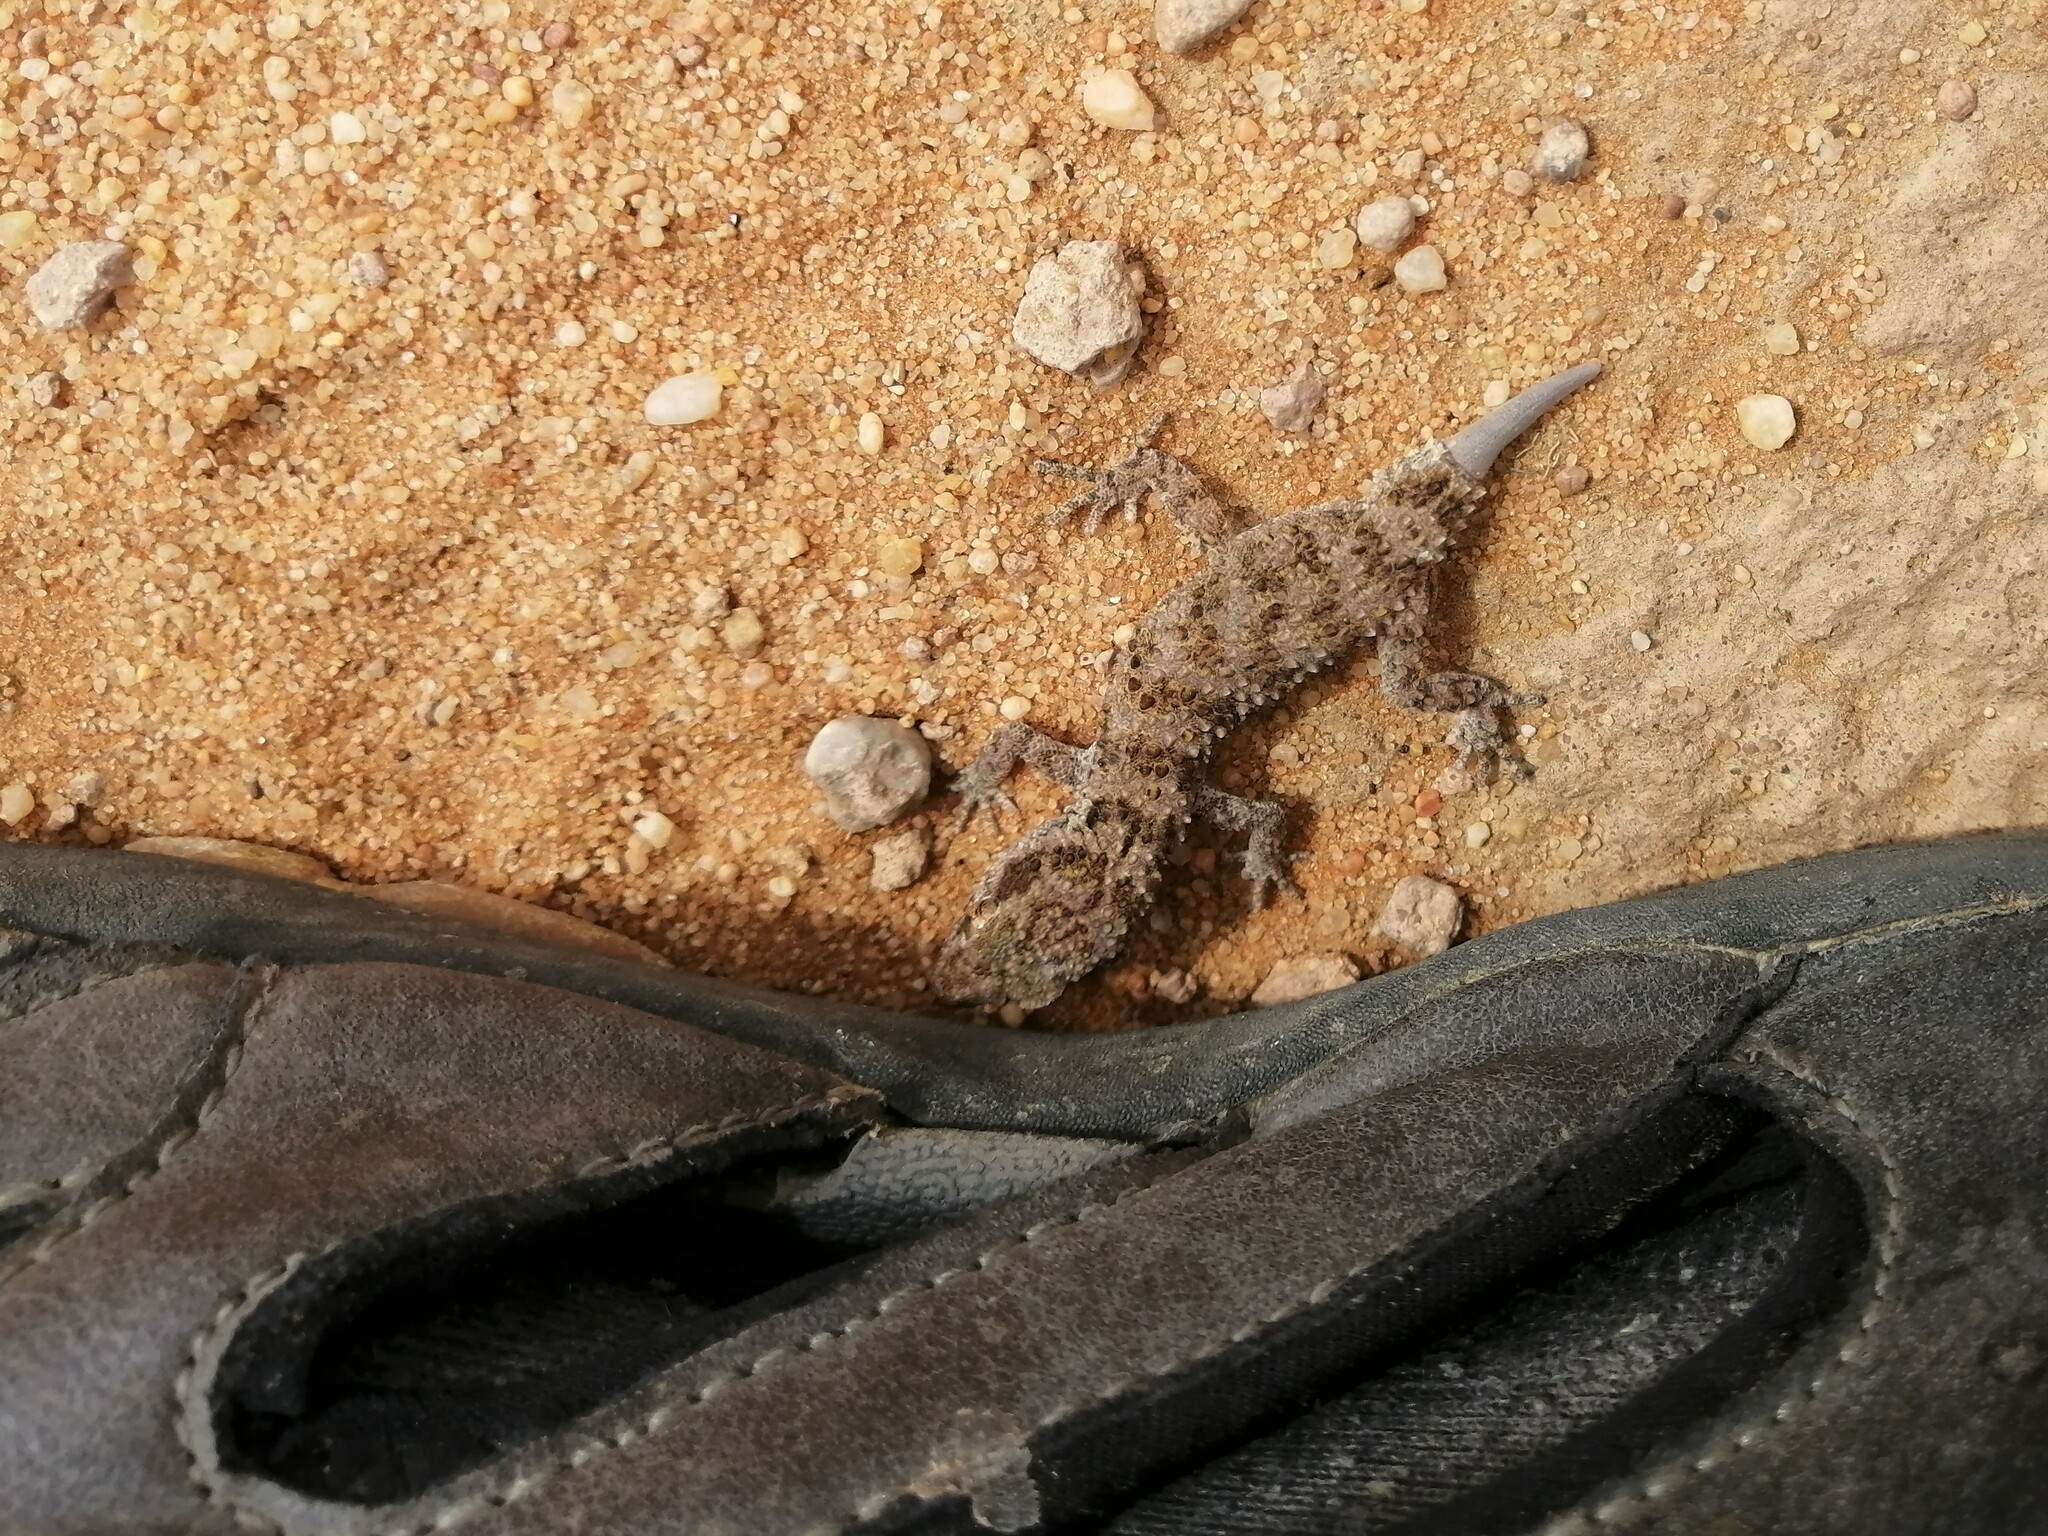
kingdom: Animalia
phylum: Chordata
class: Squamata
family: Gekkonidae
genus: Bunopus
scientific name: Bunopus tuberculatus
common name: Southern tuberculated gecko
